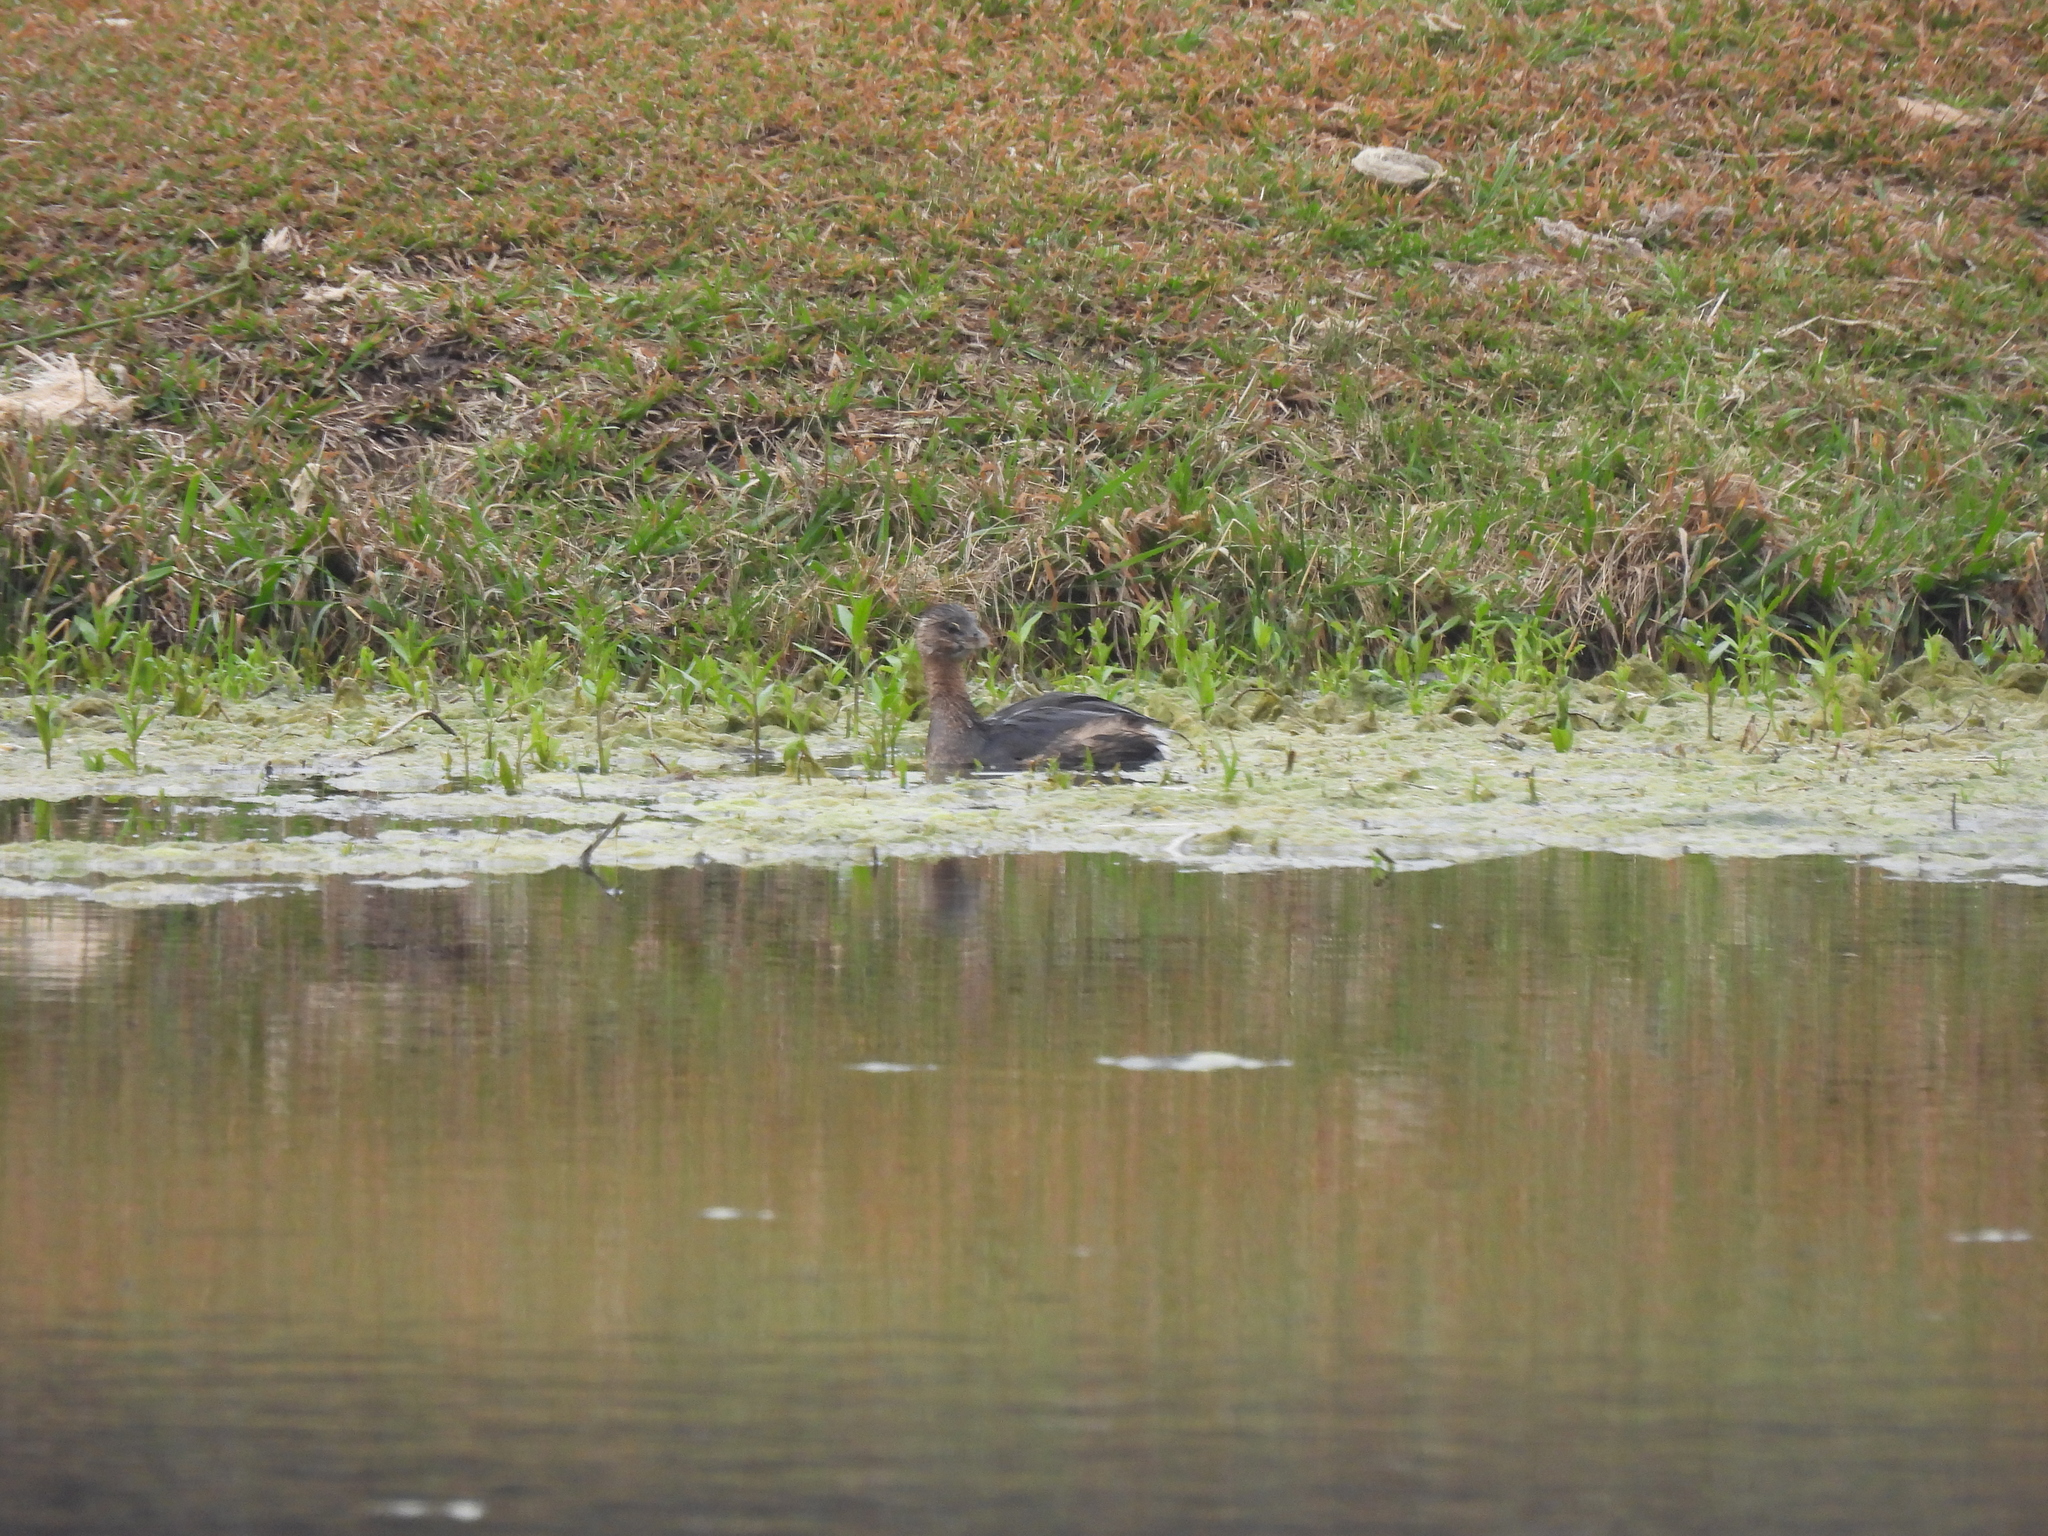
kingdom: Animalia
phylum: Chordata
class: Aves
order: Podicipediformes
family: Podicipedidae
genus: Podilymbus
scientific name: Podilymbus podiceps
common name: Pied-billed grebe
